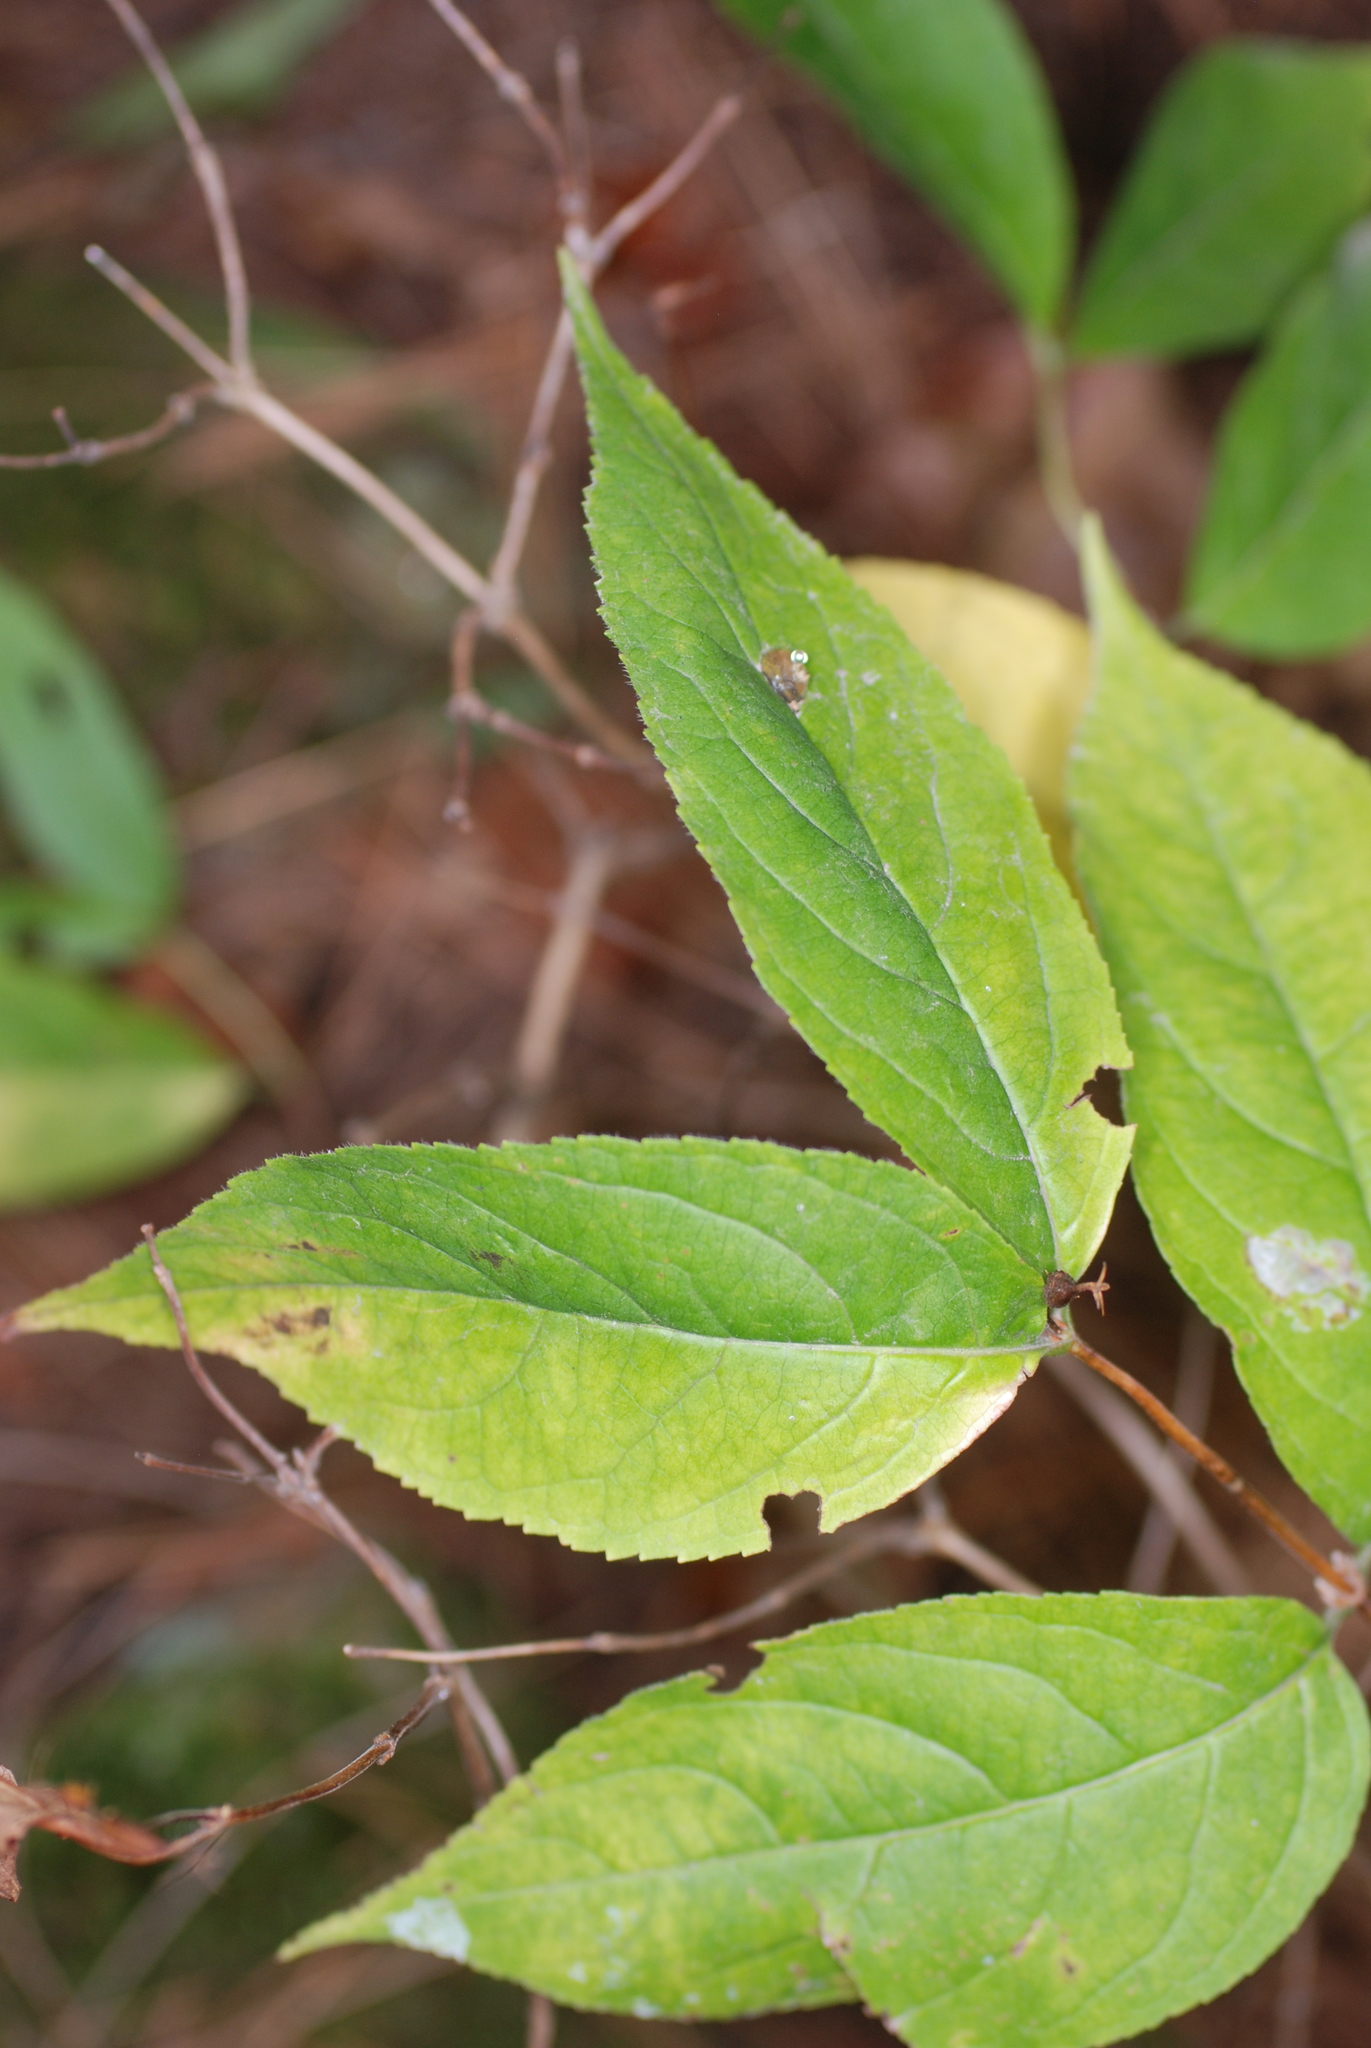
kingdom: Plantae
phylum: Tracheophyta
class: Magnoliopsida
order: Dipsacales
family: Caprifoliaceae
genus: Diervilla
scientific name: Diervilla lonicera
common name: Bush-honeysuckle
